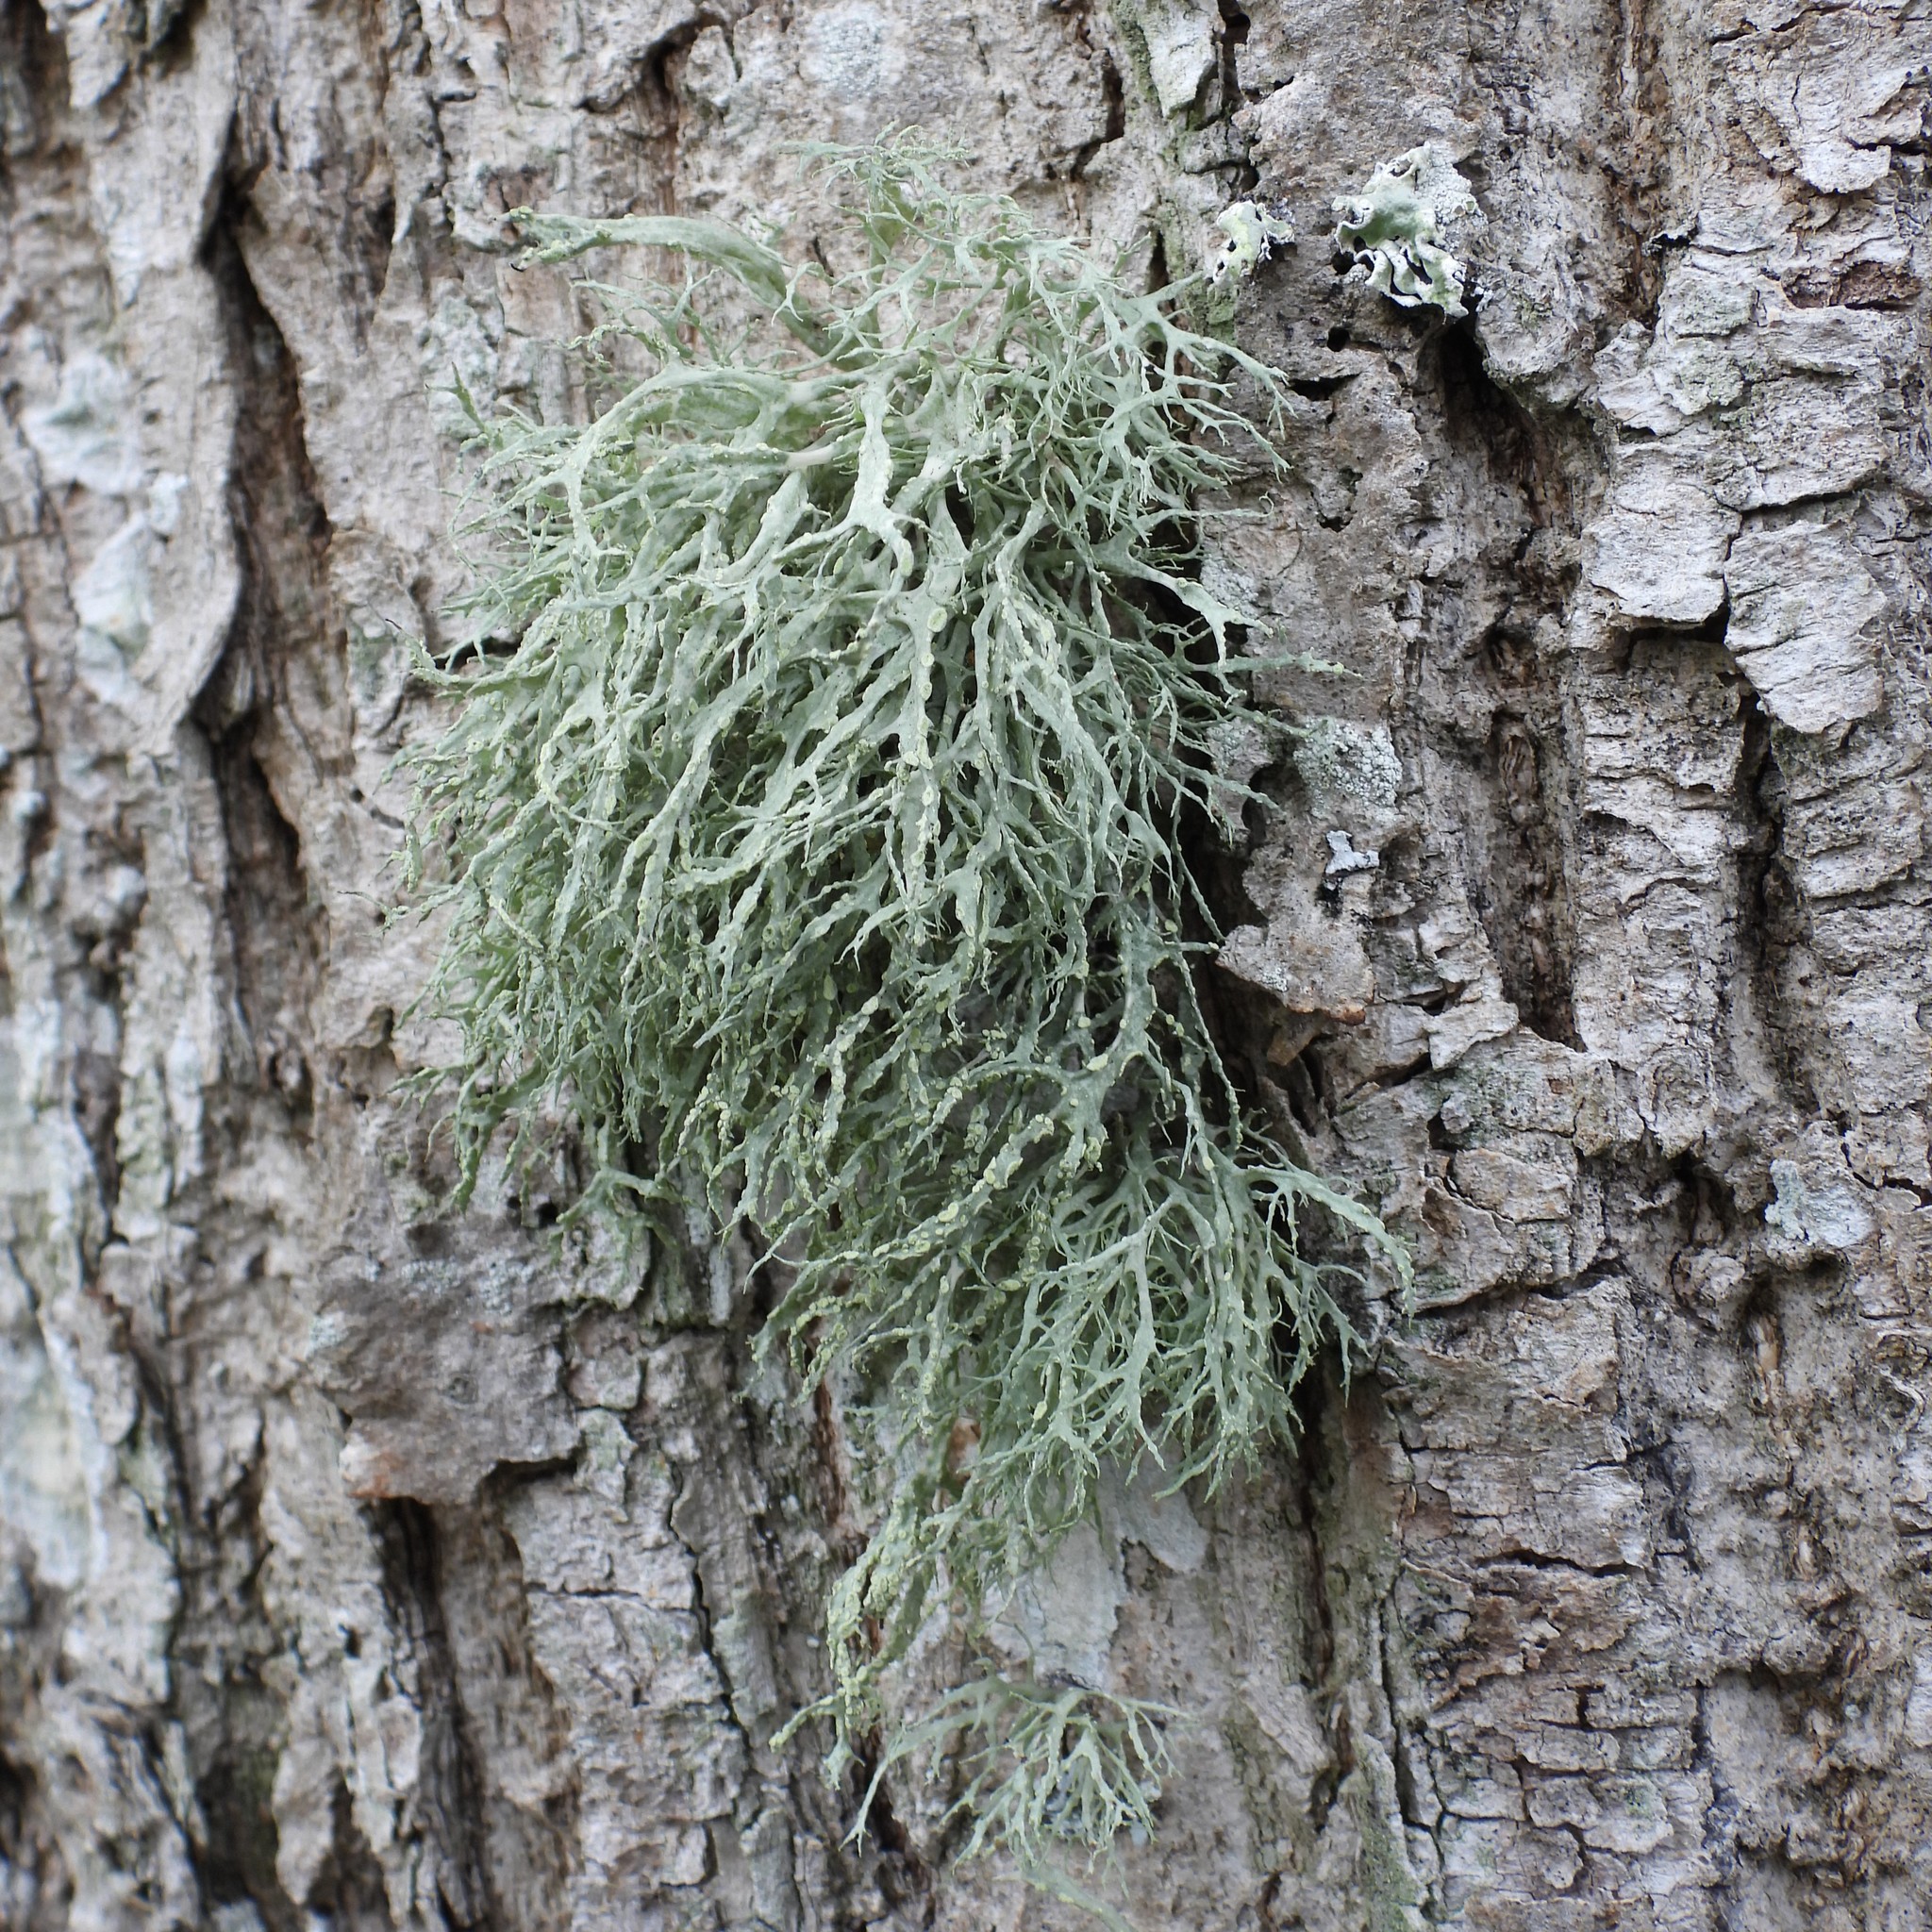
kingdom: Fungi
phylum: Ascomycota
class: Lecanoromycetes
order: Lecanorales
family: Ramalinaceae
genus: Ramalina
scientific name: Ramalina farinacea
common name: Farinose cartilage lichen
